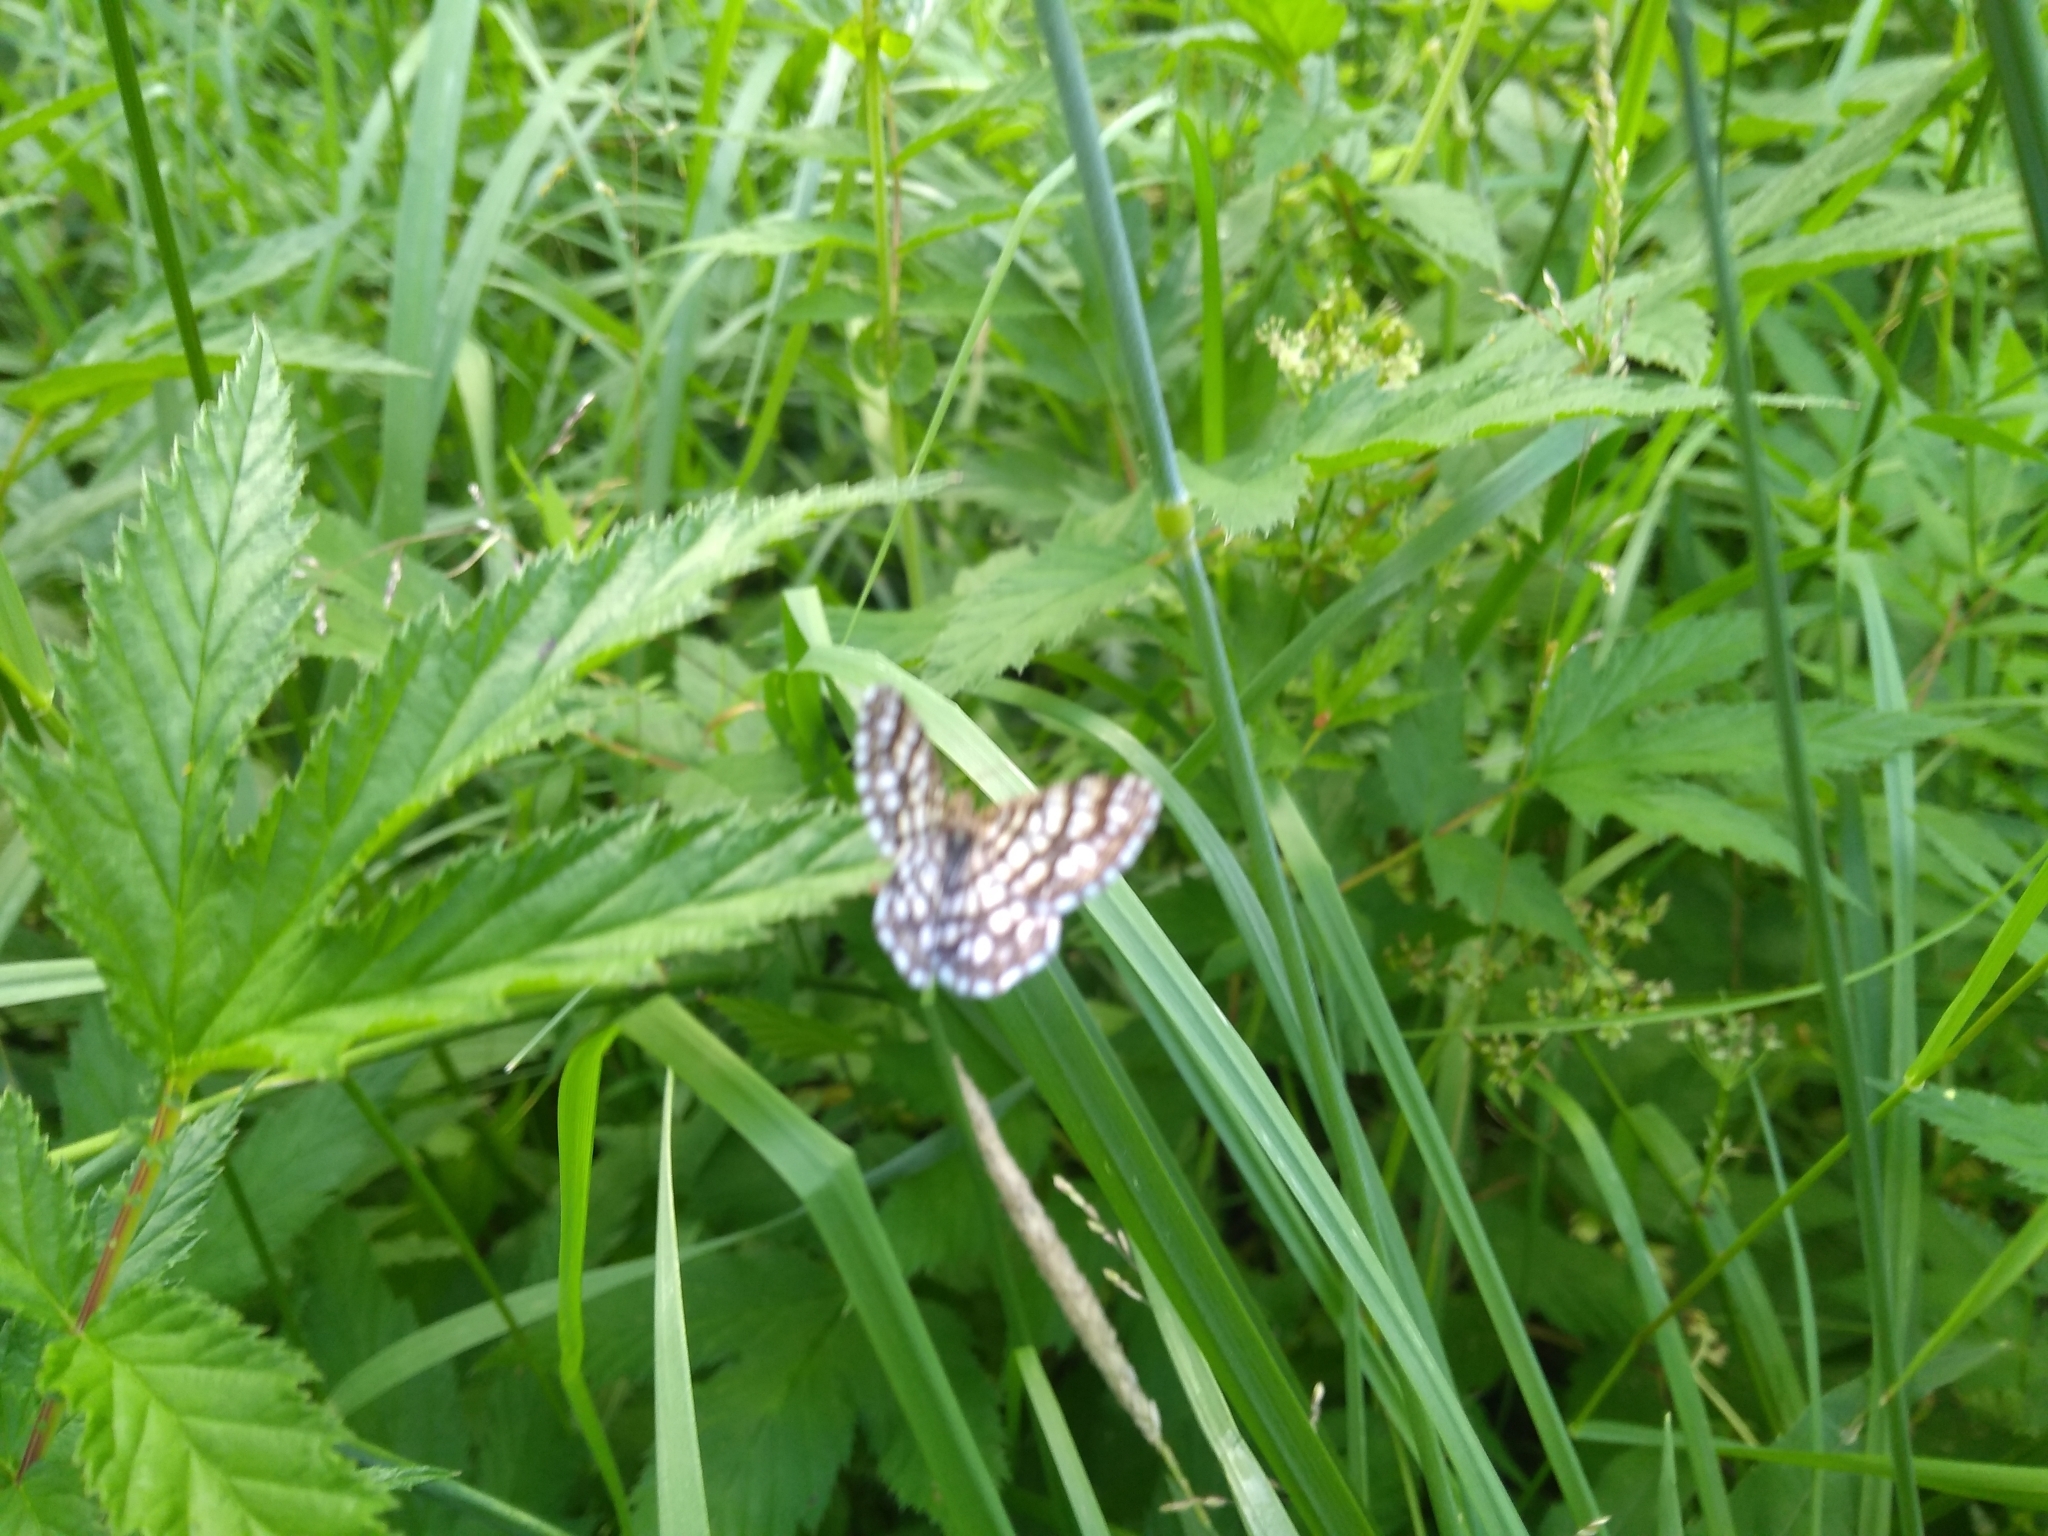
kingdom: Animalia
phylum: Arthropoda
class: Insecta
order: Lepidoptera
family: Geometridae
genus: Chiasmia
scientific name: Chiasmia clathrata
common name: Latticed heath
